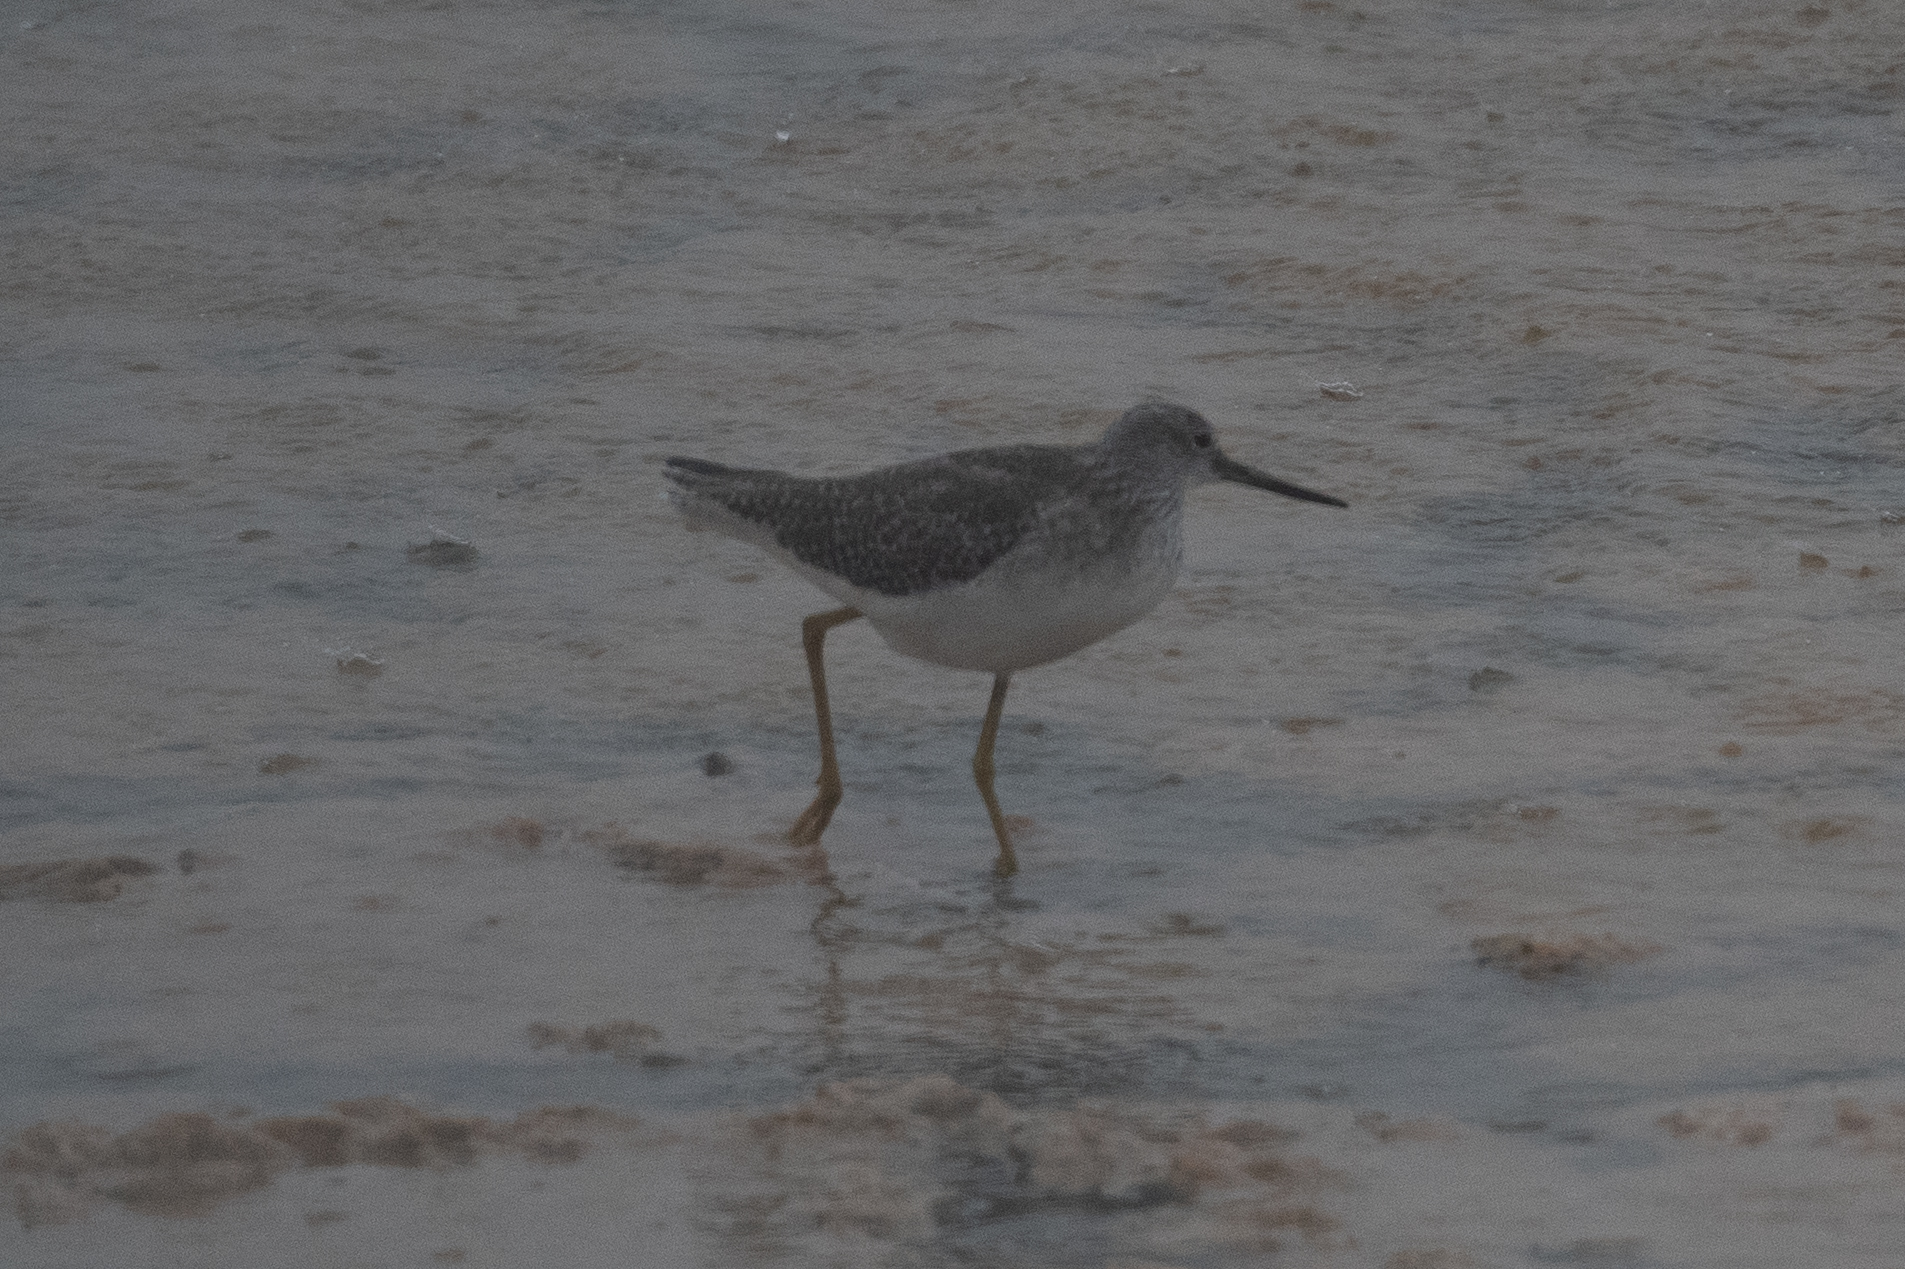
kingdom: Animalia
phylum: Chordata
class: Aves
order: Charadriiformes
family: Scolopacidae
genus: Tringa
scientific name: Tringa melanoleuca
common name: Greater yellowlegs
